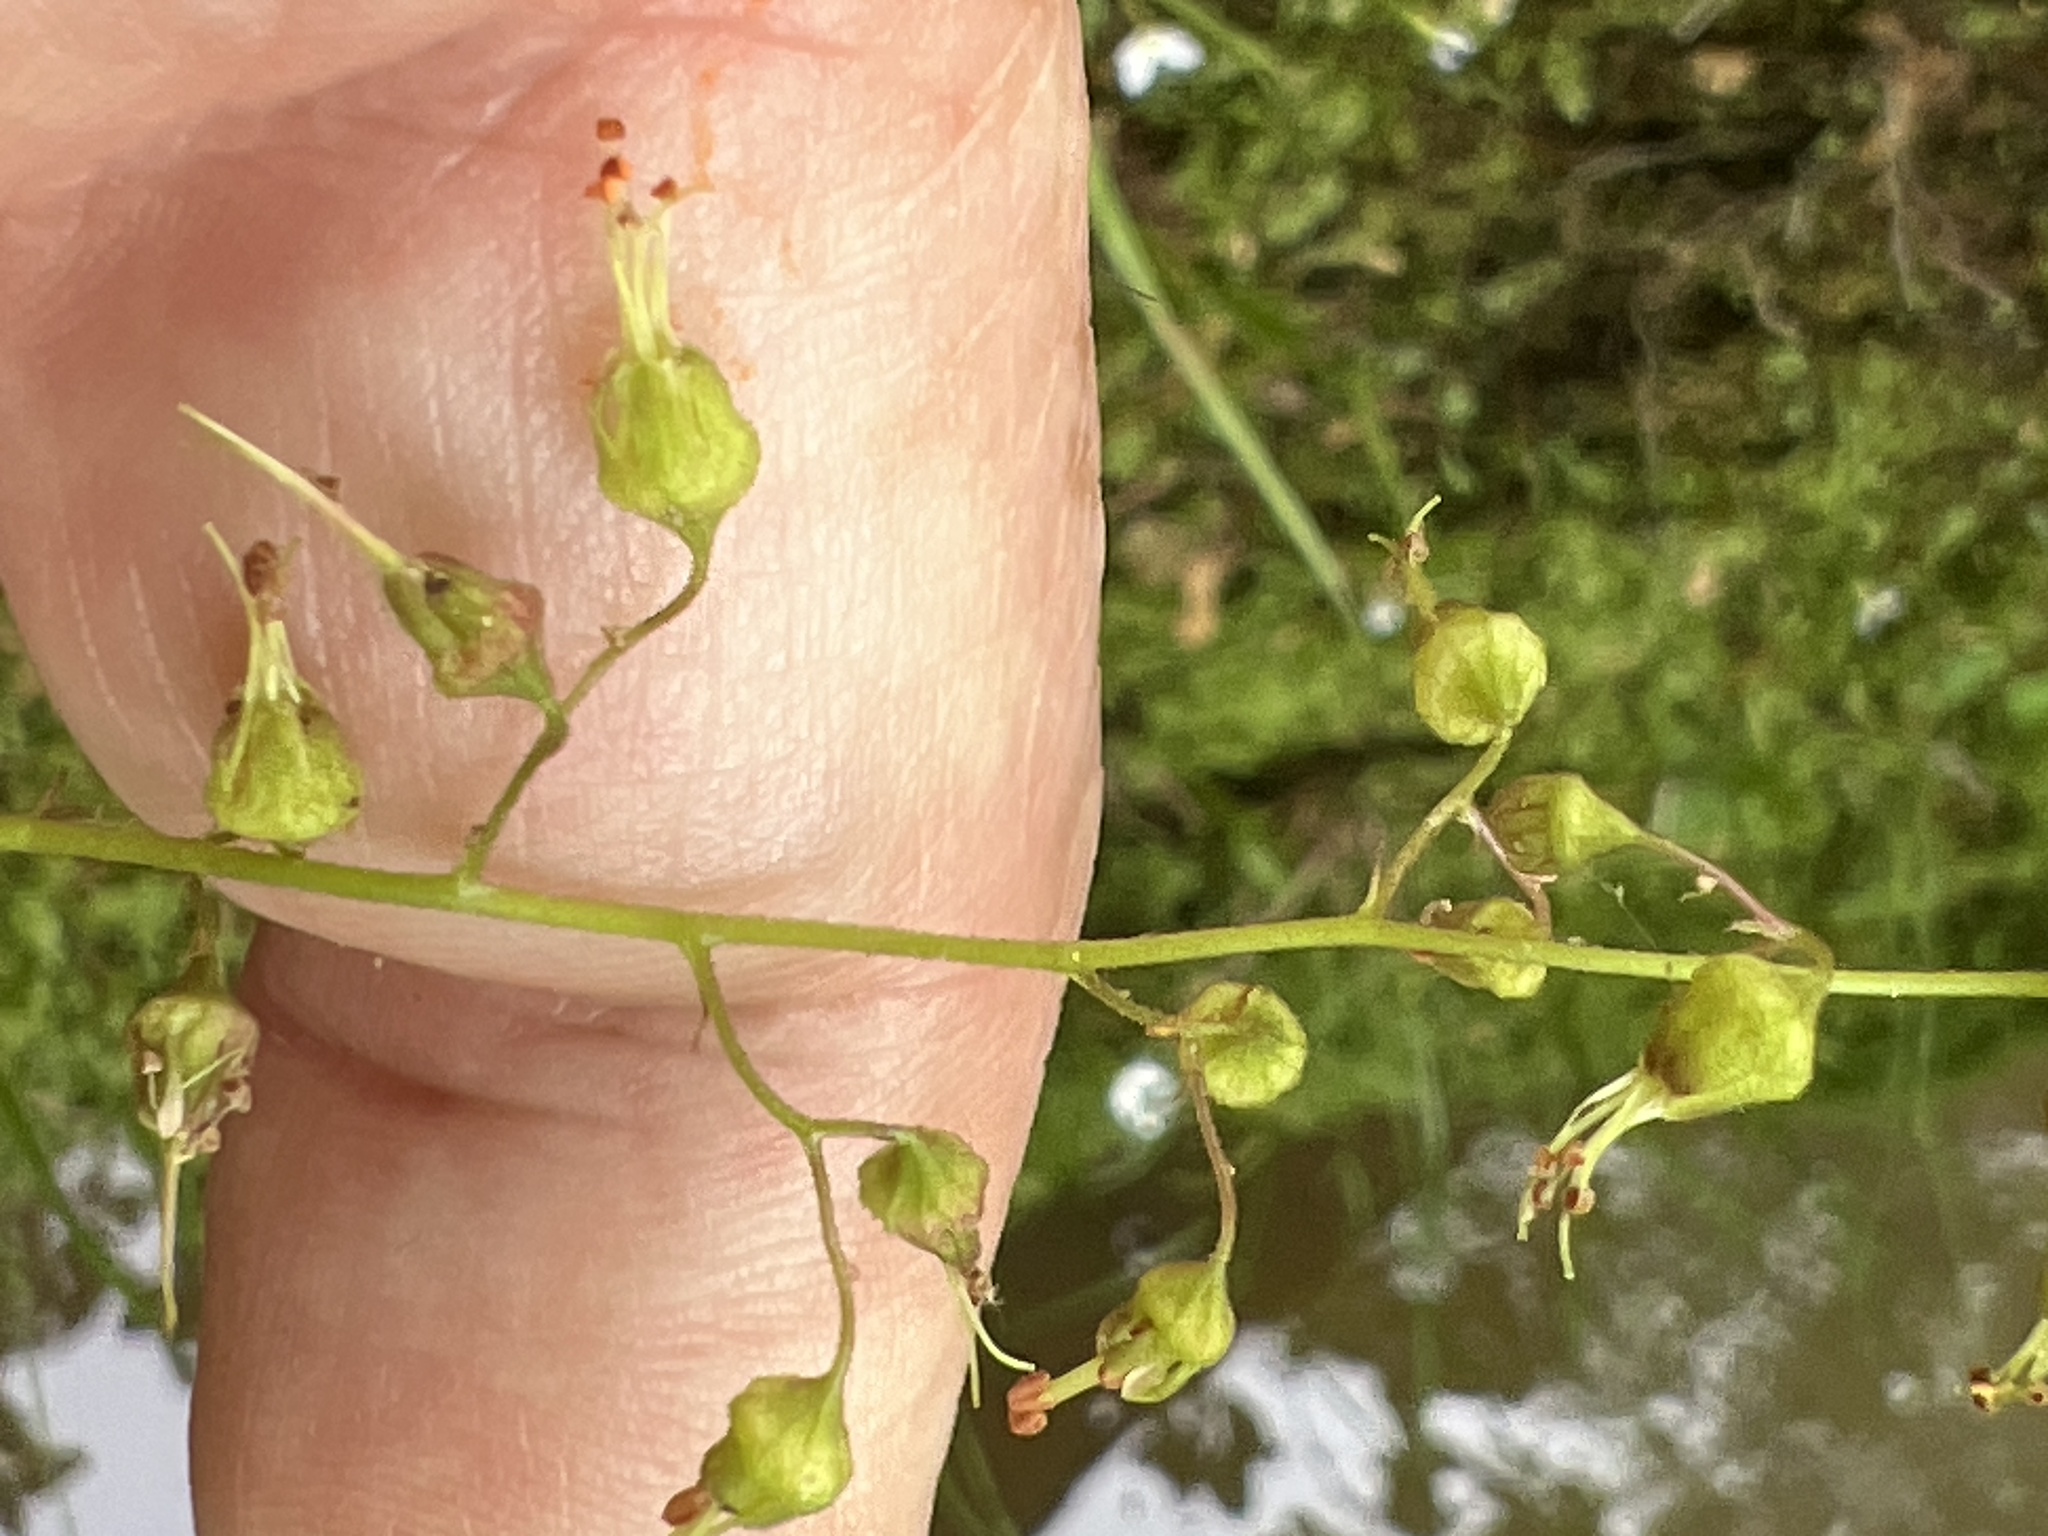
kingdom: Plantae
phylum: Tracheophyta
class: Magnoliopsida
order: Saxifragales
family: Saxifragaceae
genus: Heuchera
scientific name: Heuchera americana
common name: Alumroot
